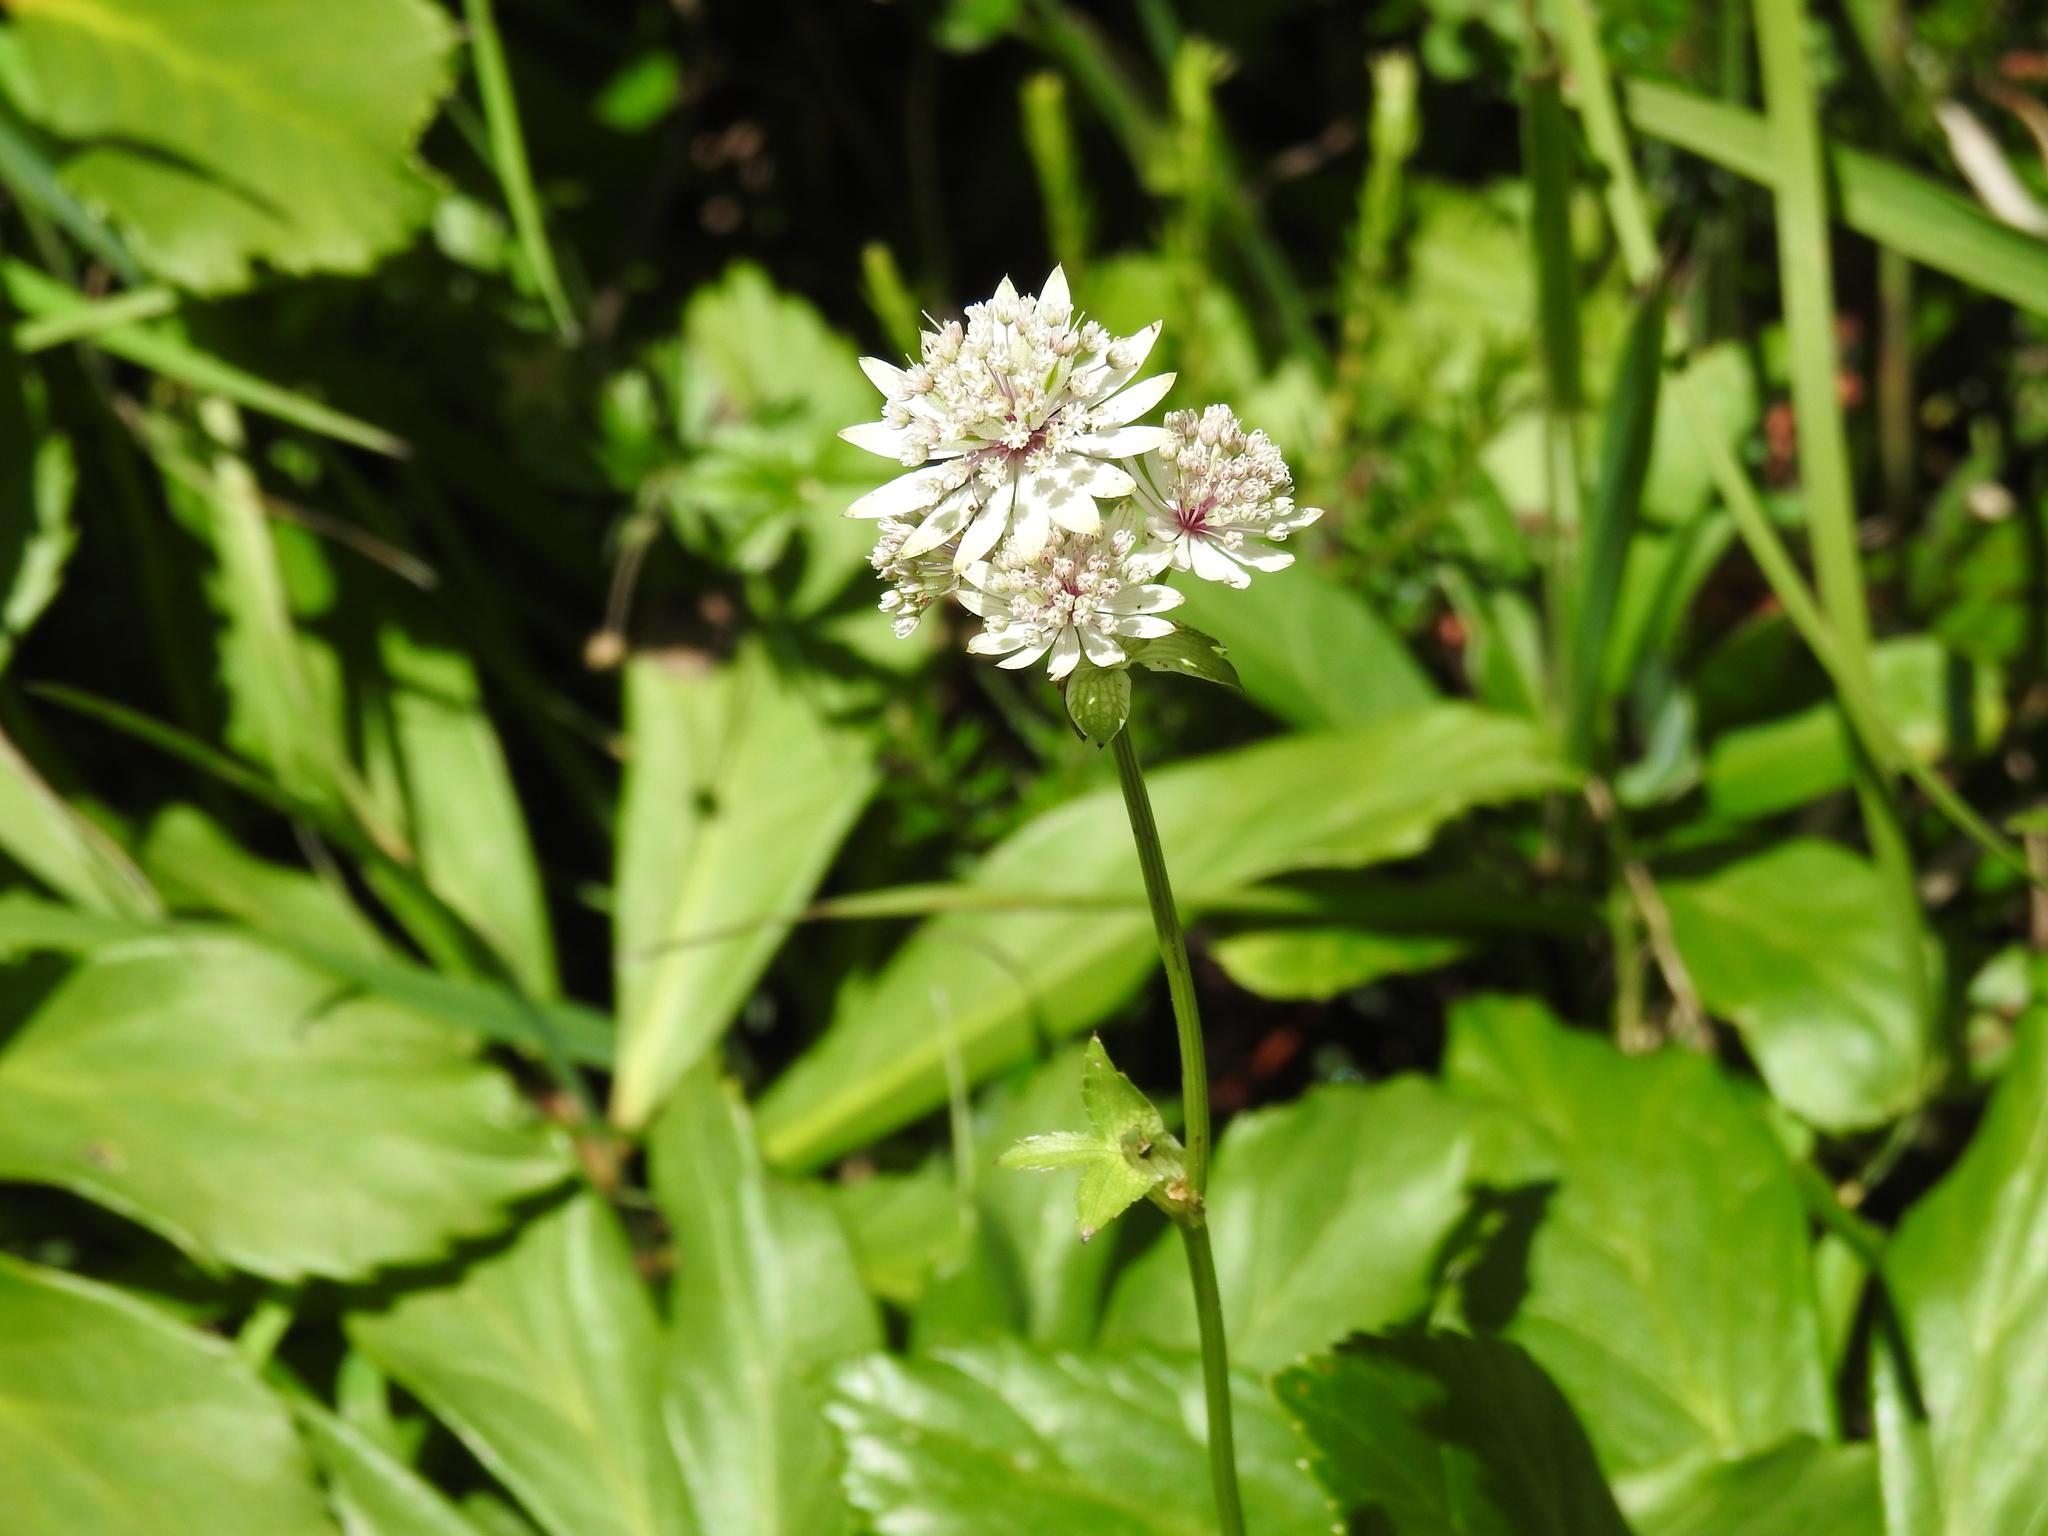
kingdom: Plantae
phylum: Tracheophyta
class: Magnoliopsida
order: Apiales
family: Apiaceae
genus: Astrantia
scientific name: Astrantia major
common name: Greater masterwort
